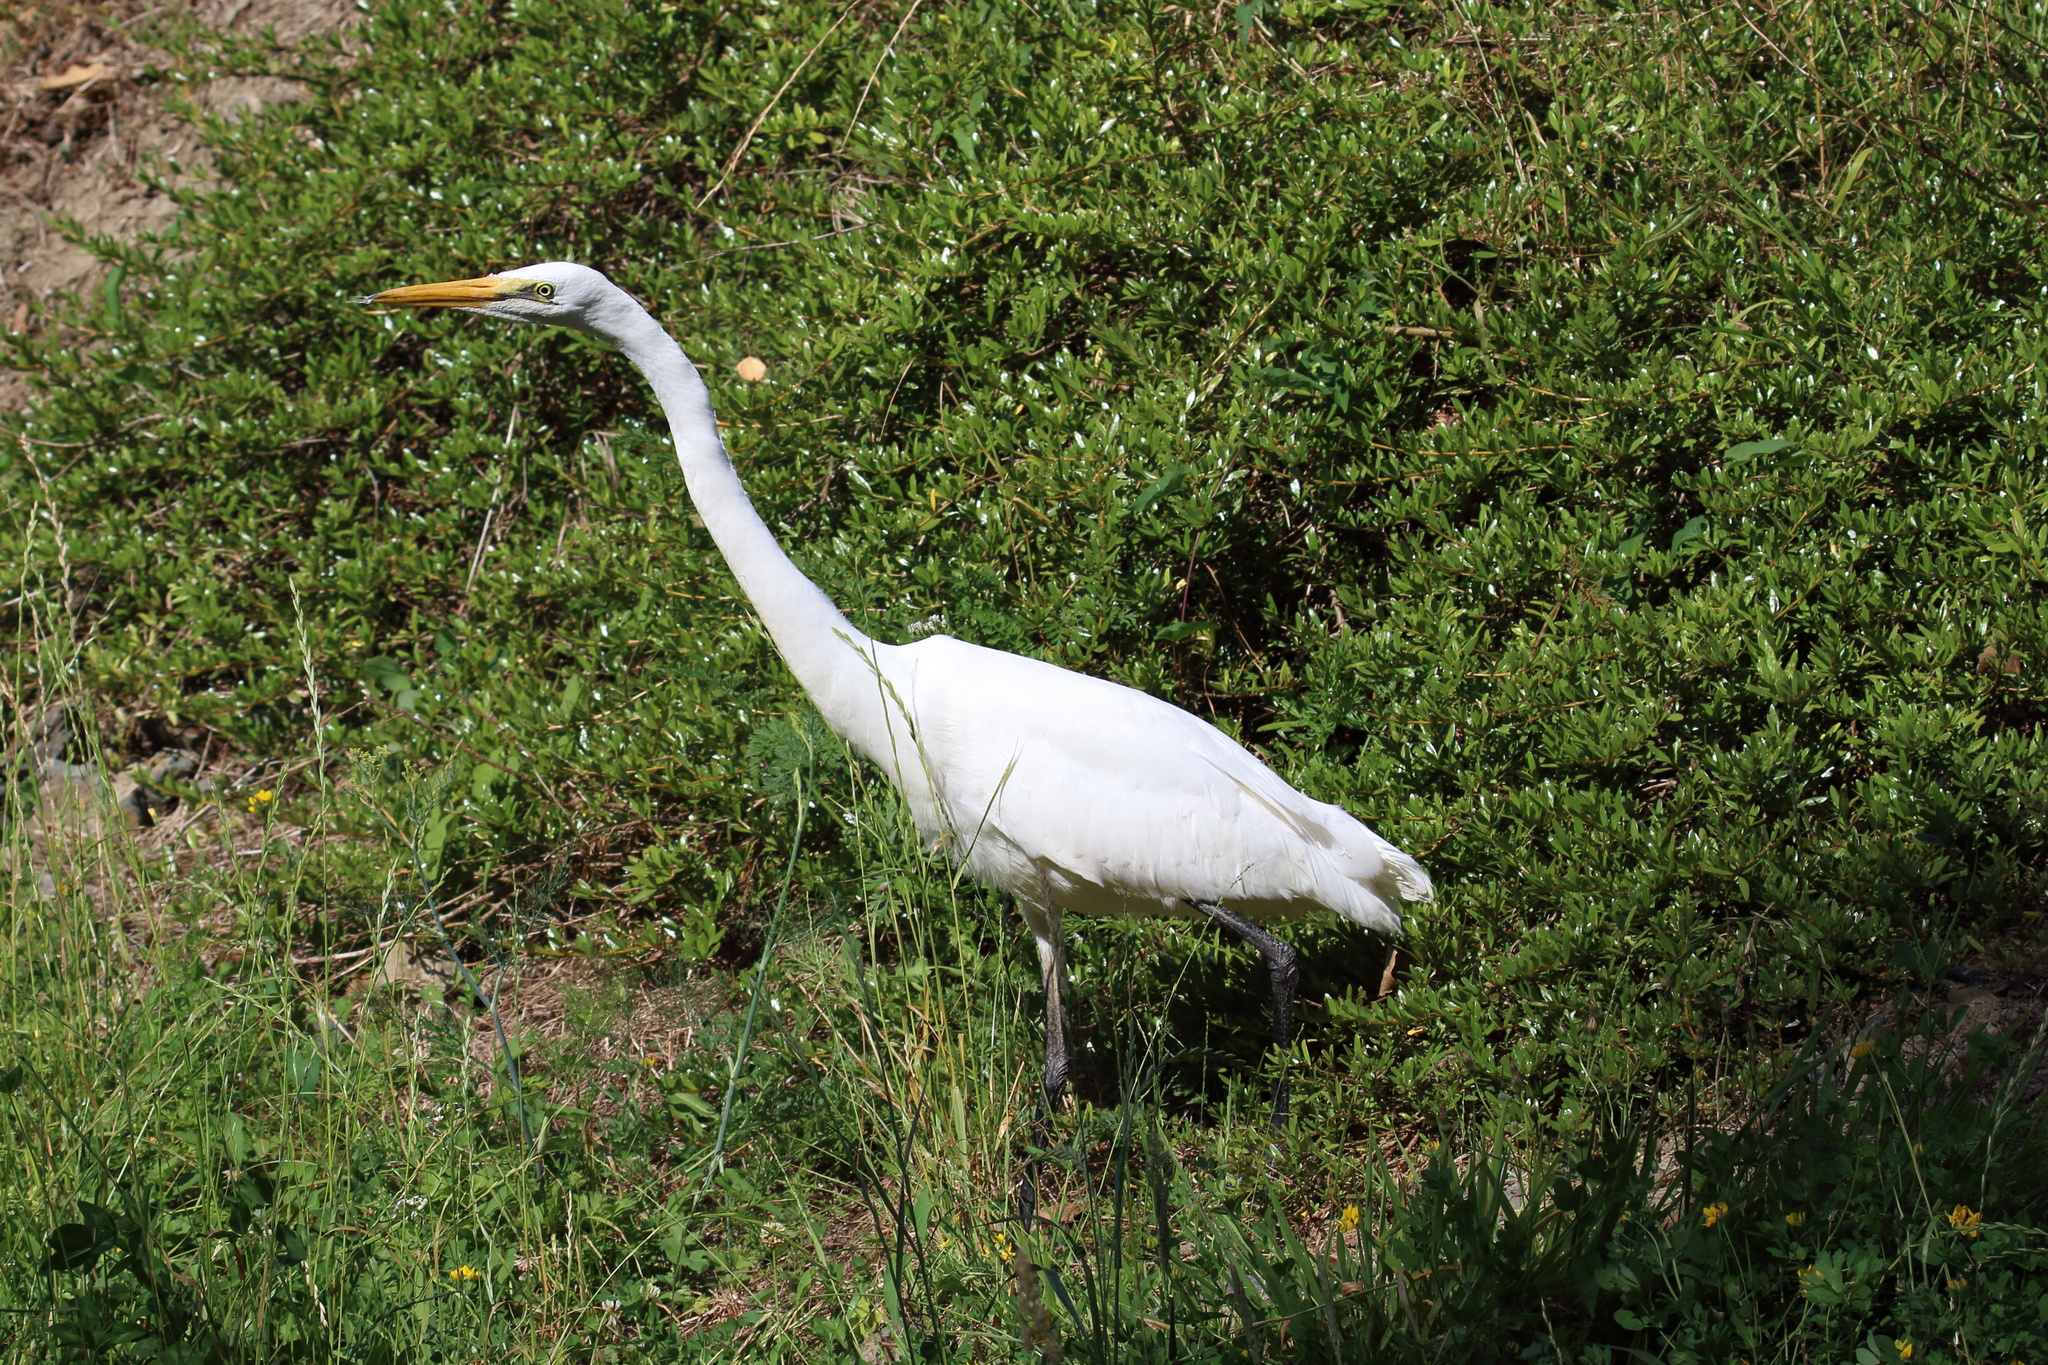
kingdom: Animalia
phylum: Chordata
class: Aves
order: Pelecaniformes
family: Ardeidae
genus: Ardea
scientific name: Ardea modesta
